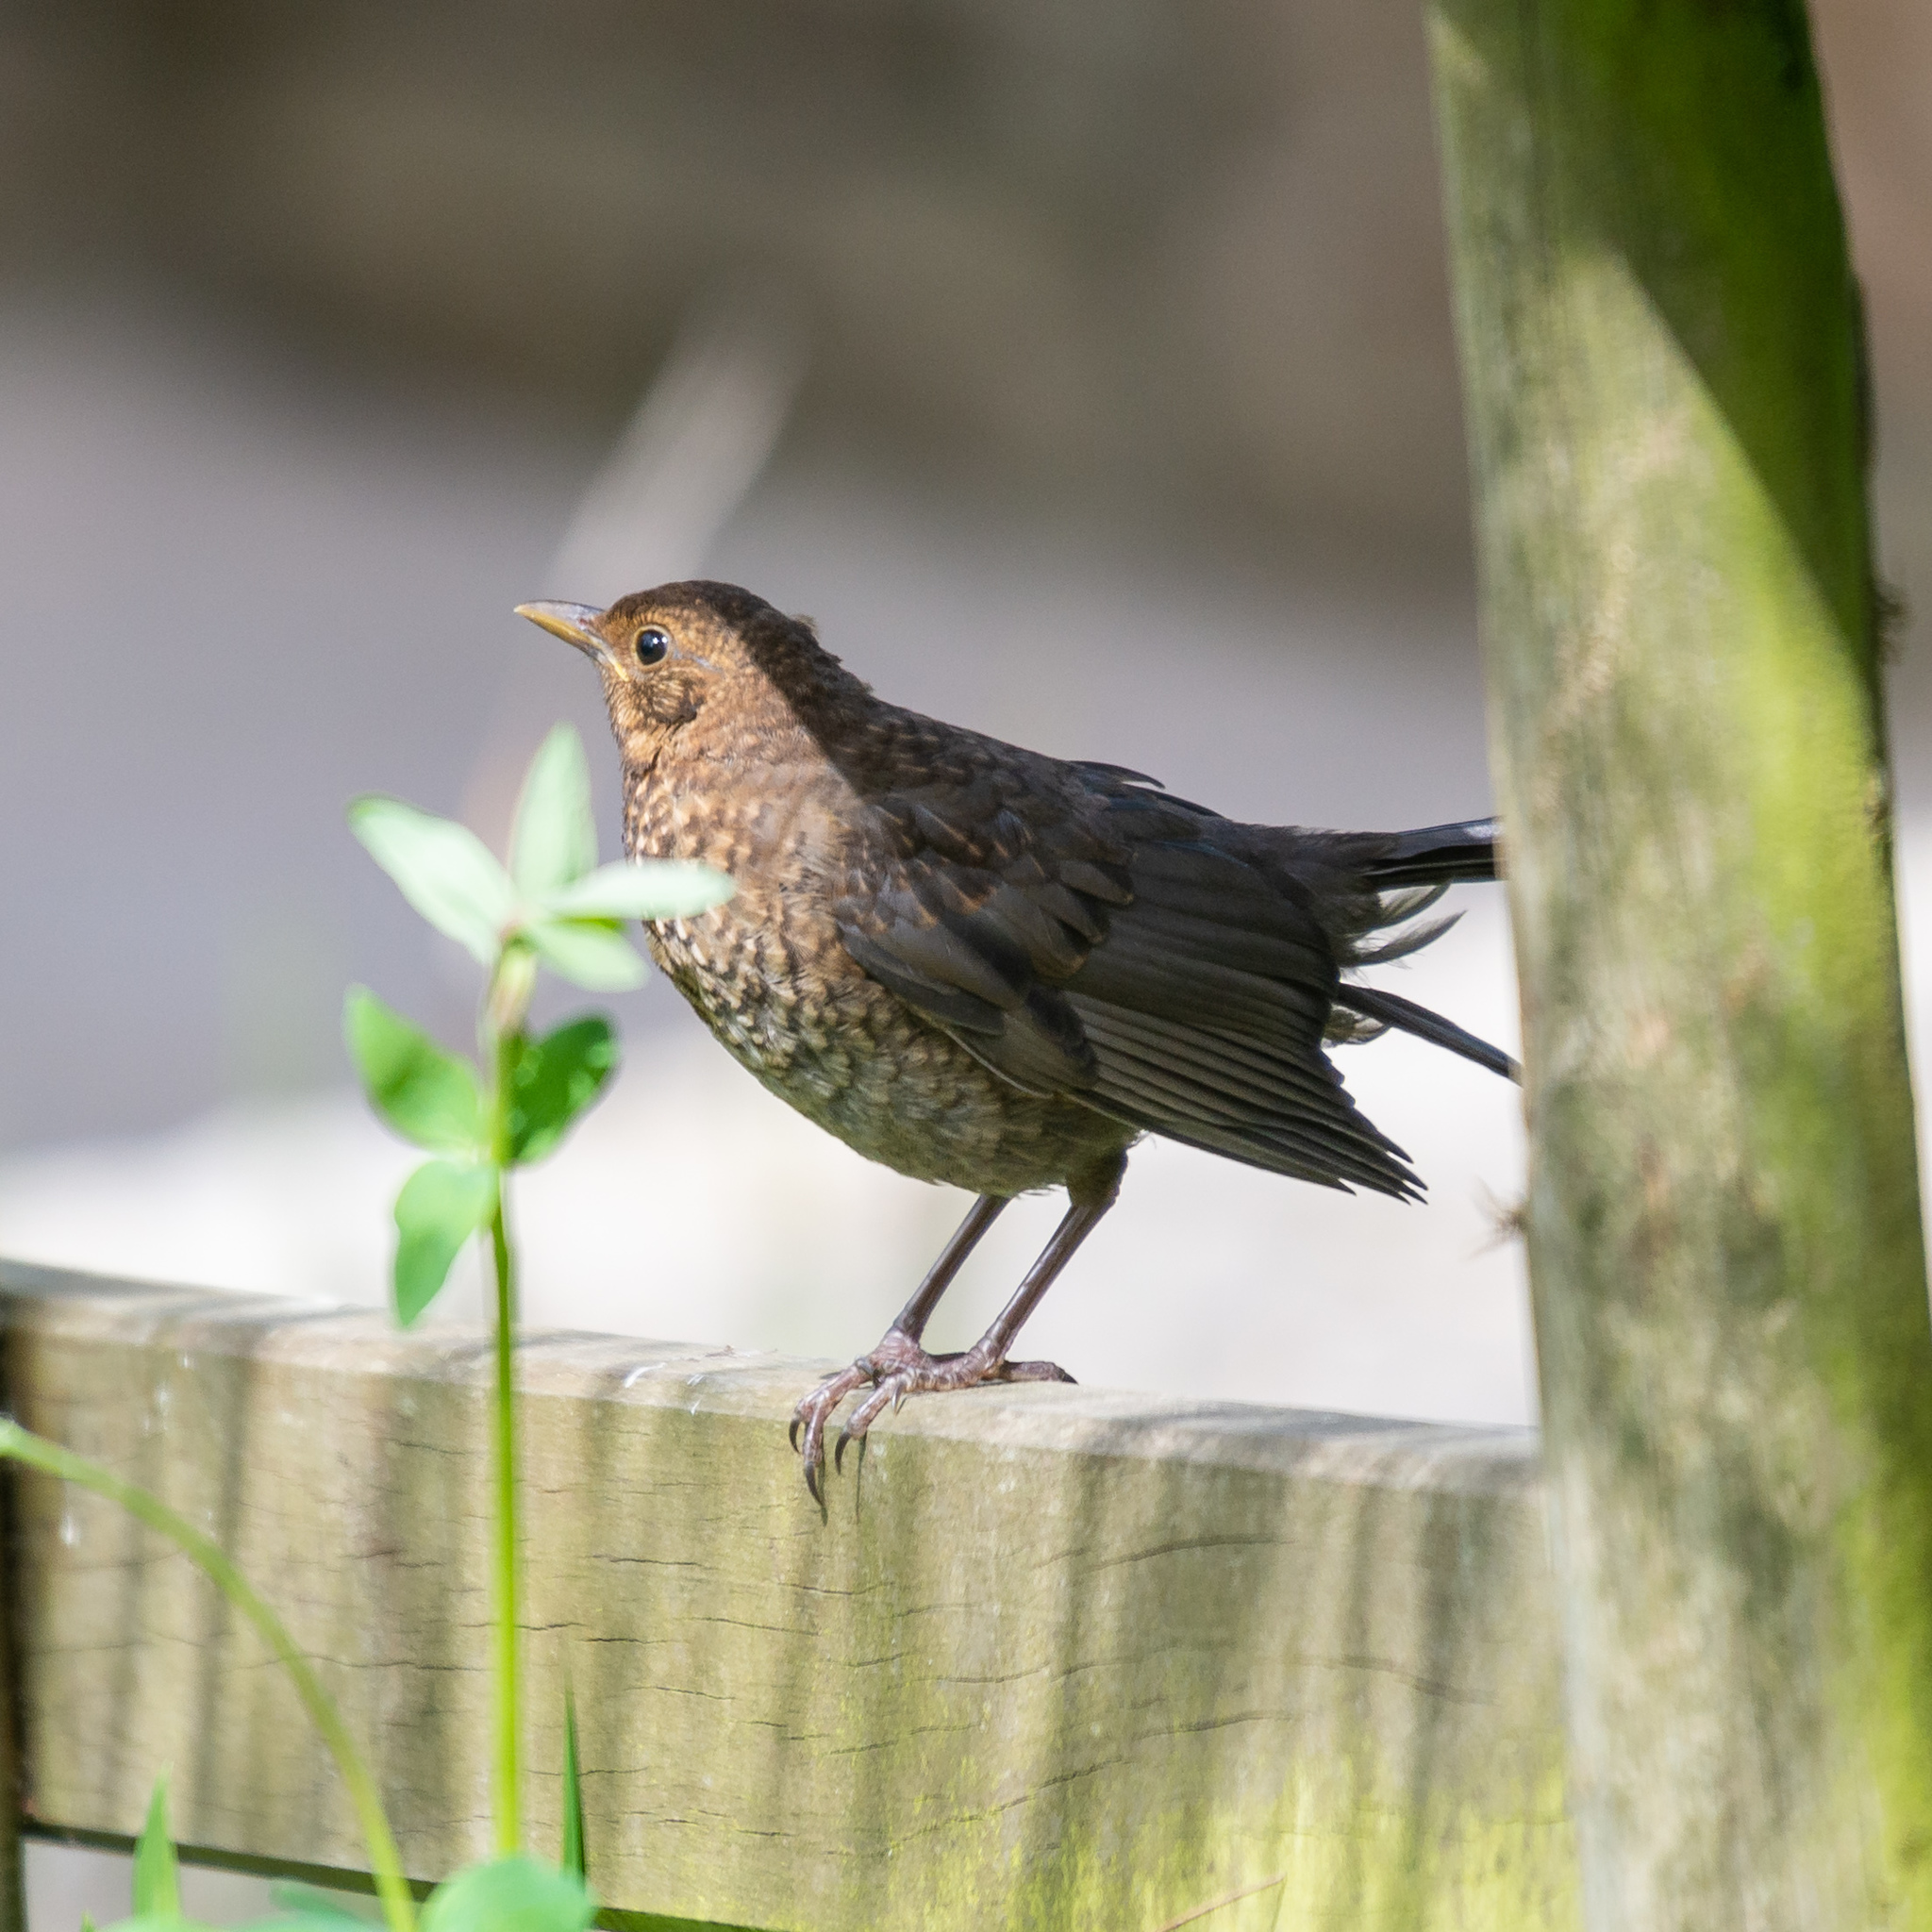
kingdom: Animalia
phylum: Chordata
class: Aves
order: Passeriformes
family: Turdidae
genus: Turdus
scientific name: Turdus merula
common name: Common blackbird
